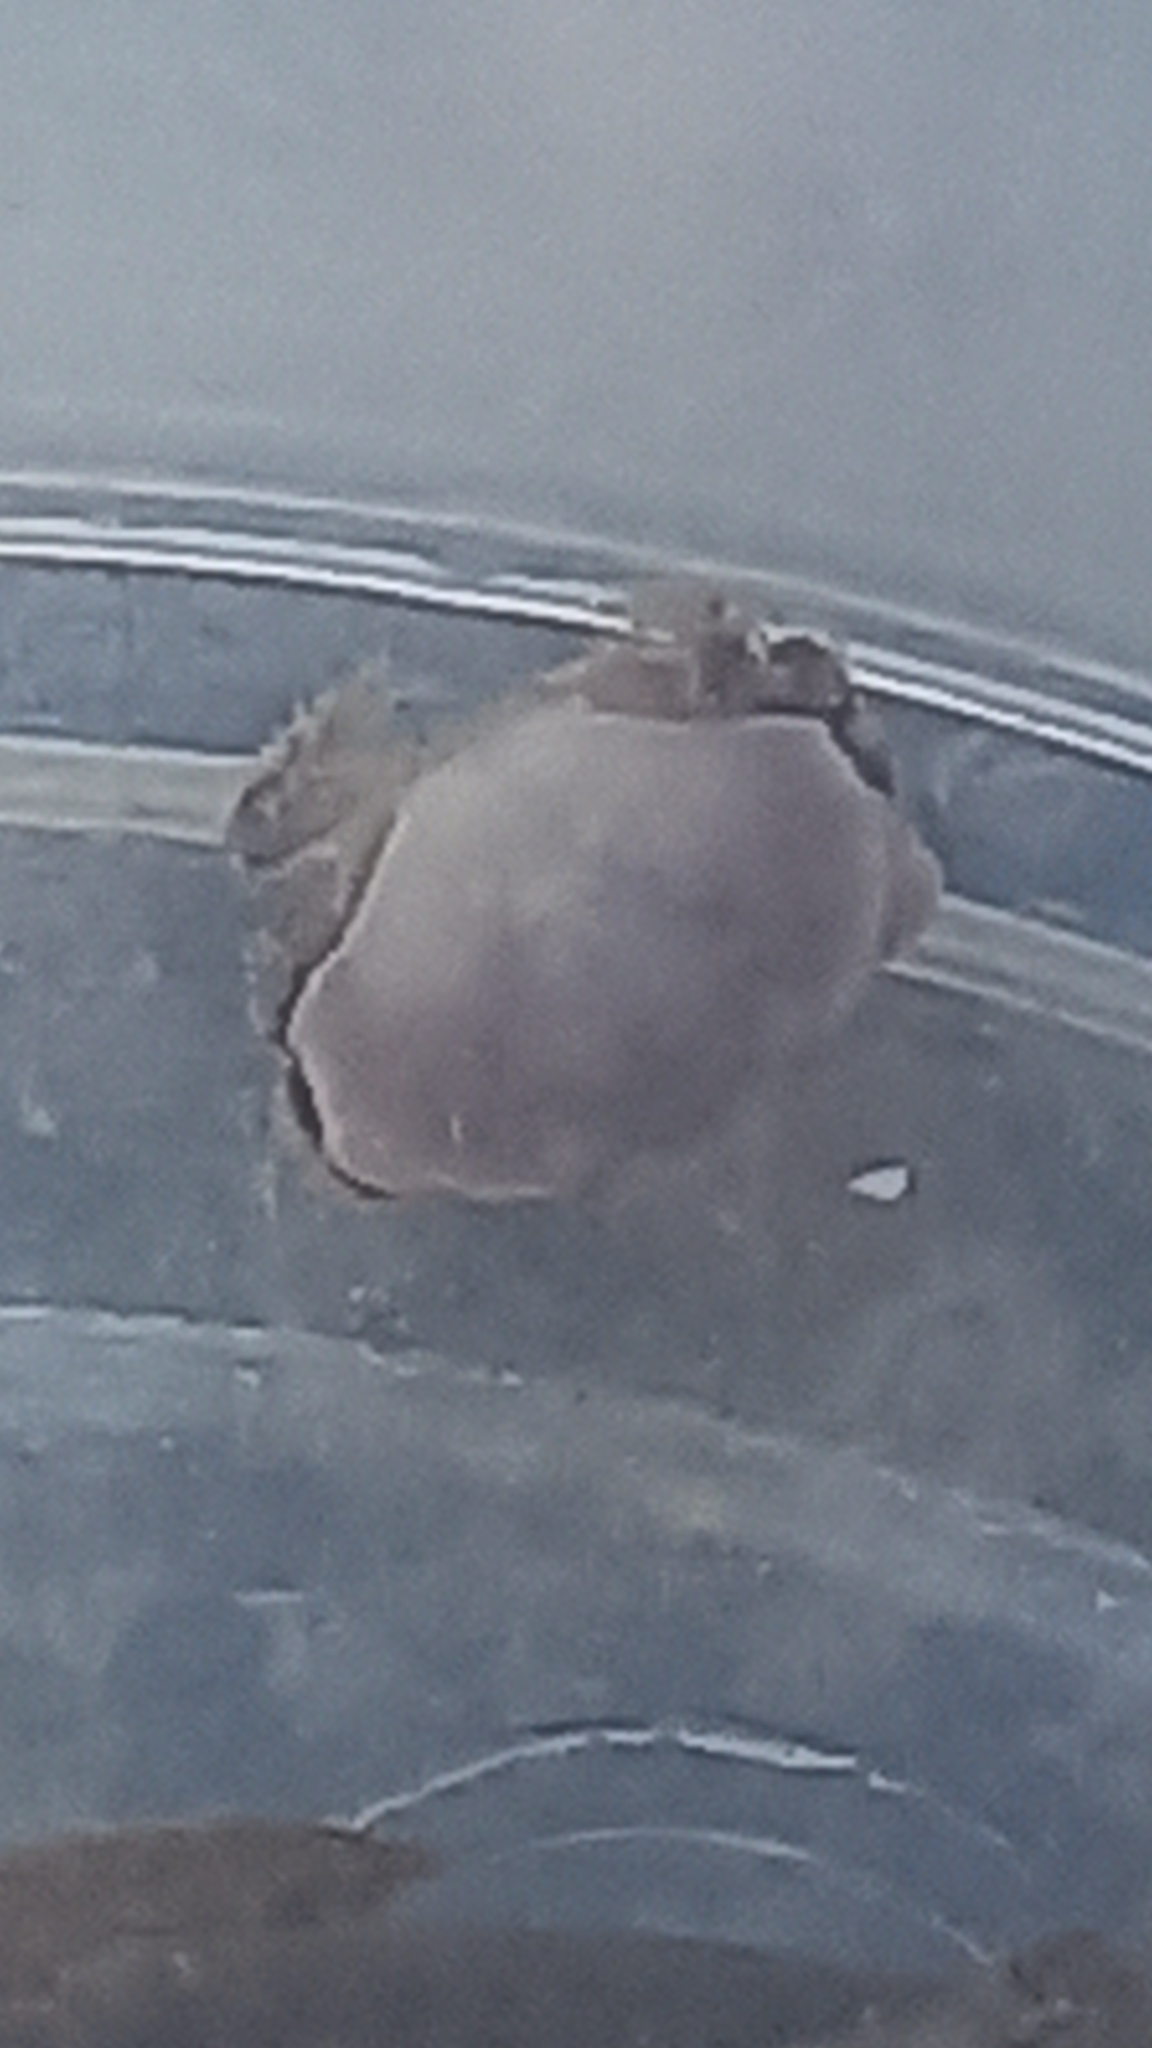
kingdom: Animalia
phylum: Arthropoda
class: Malacostraca
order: Decapoda
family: Cancridae
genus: Cancer
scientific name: Cancer pagurus
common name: Edible crab
